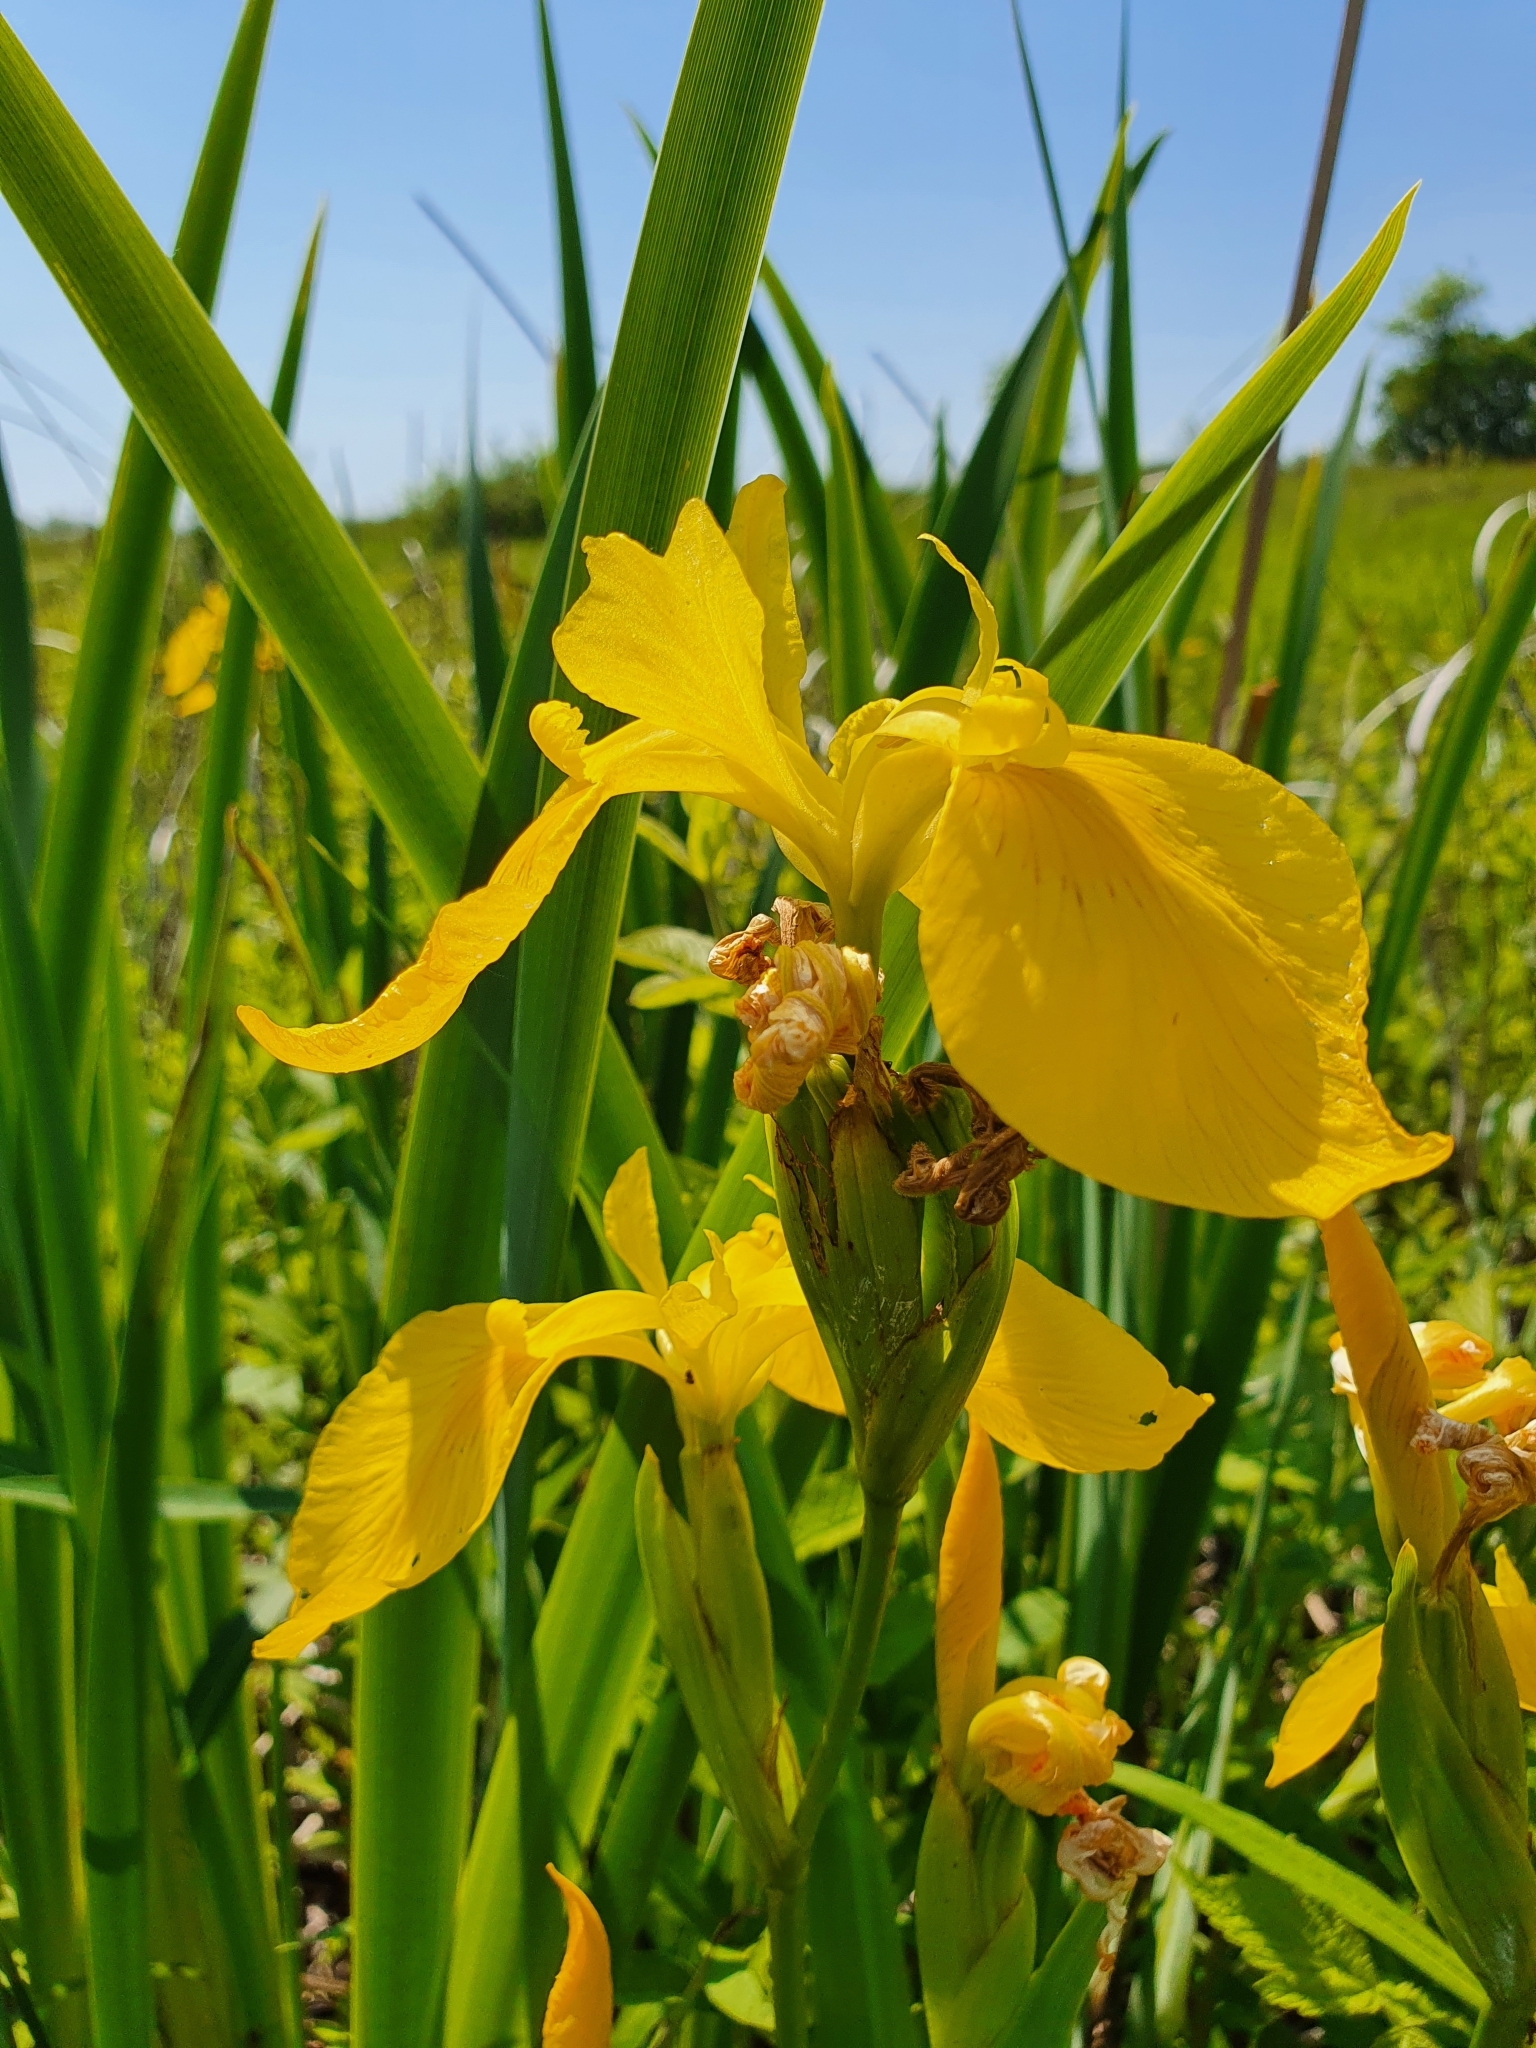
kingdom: Plantae
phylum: Tracheophyta
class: Liliopsida
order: Asparagales
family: Iridaceae
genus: Iris
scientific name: Iris pseudacorus
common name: Yellow flag
